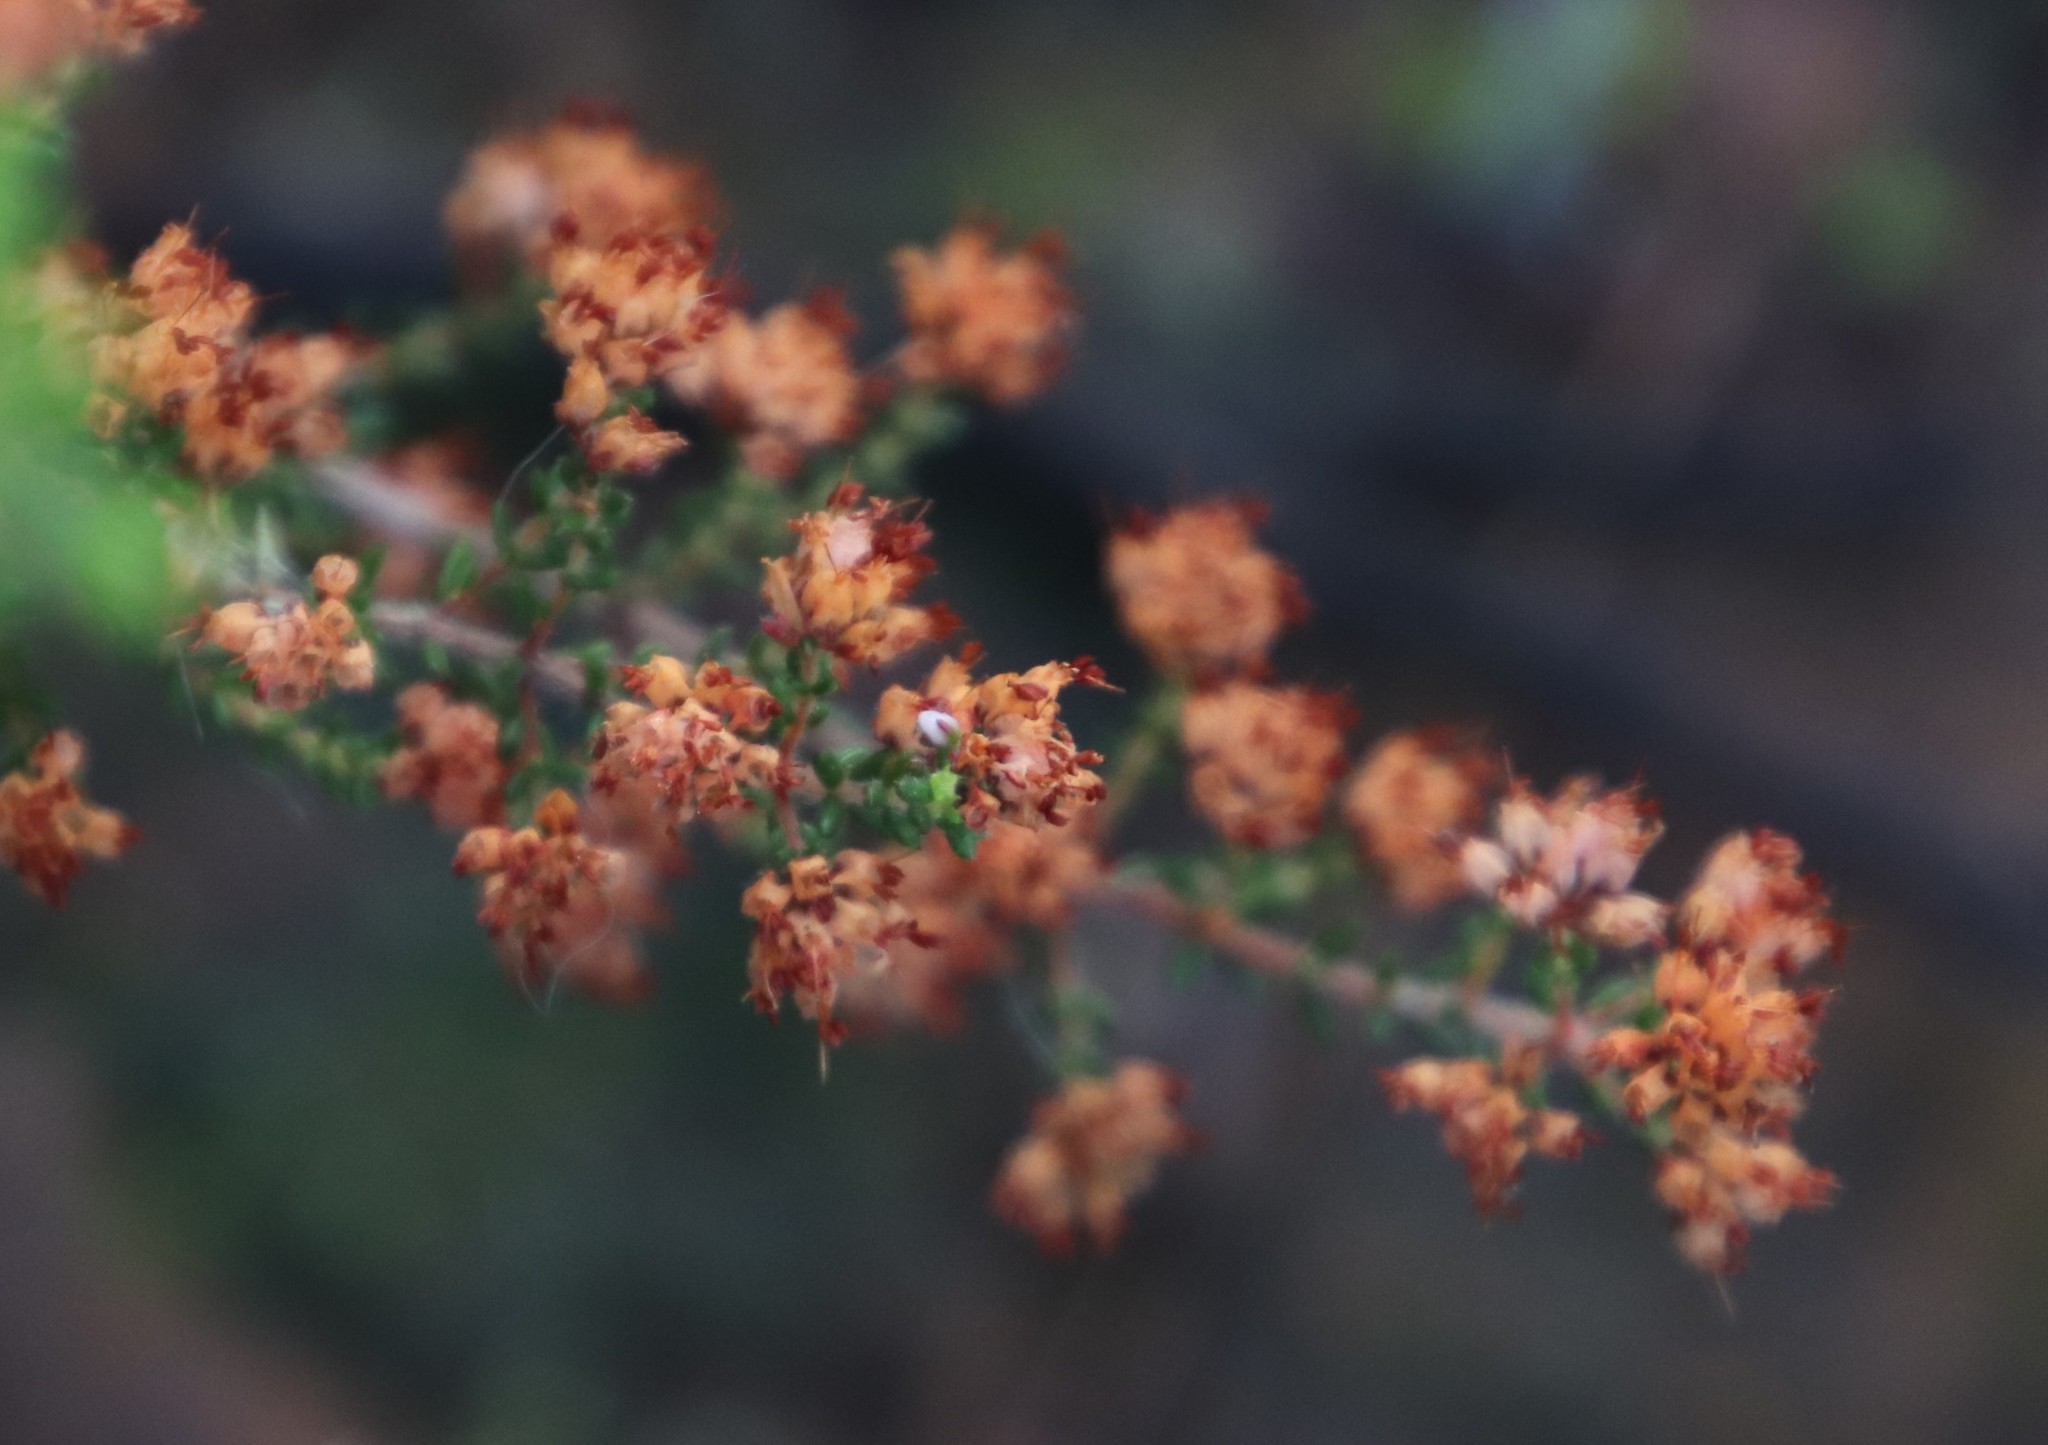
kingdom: Plantae
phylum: Tracheophyta
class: Magnoliopsida
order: Ericales
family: Ericaceae
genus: Erica
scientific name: Erica ericoides
